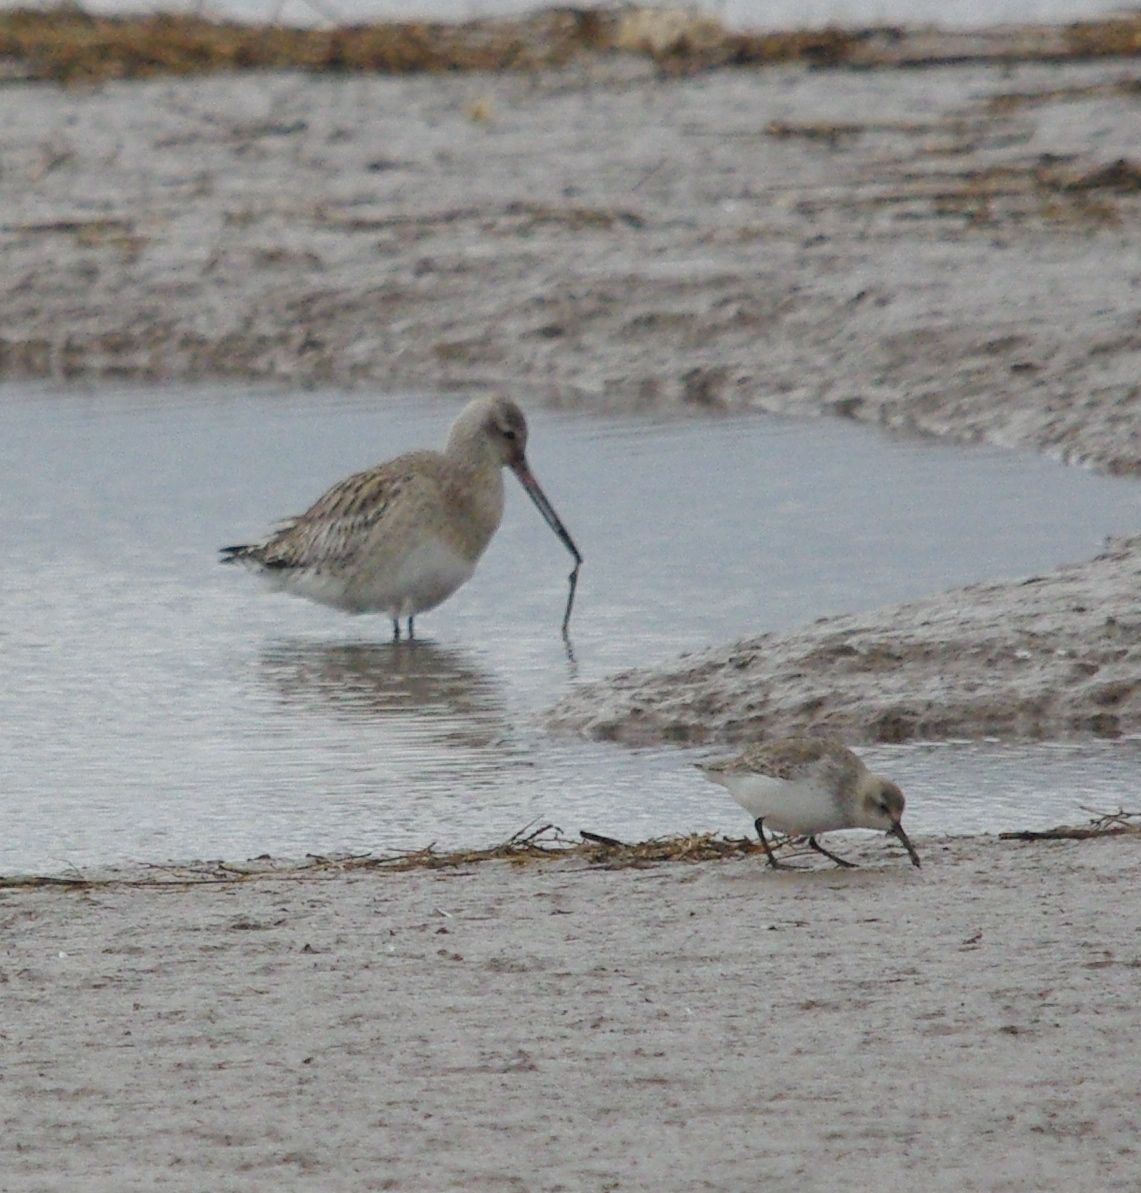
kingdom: Animalia
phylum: Chordata
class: Aves
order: Charadriiformes
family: Scolopacidae
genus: Calidris
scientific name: Calidris alpina
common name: Dunlin
